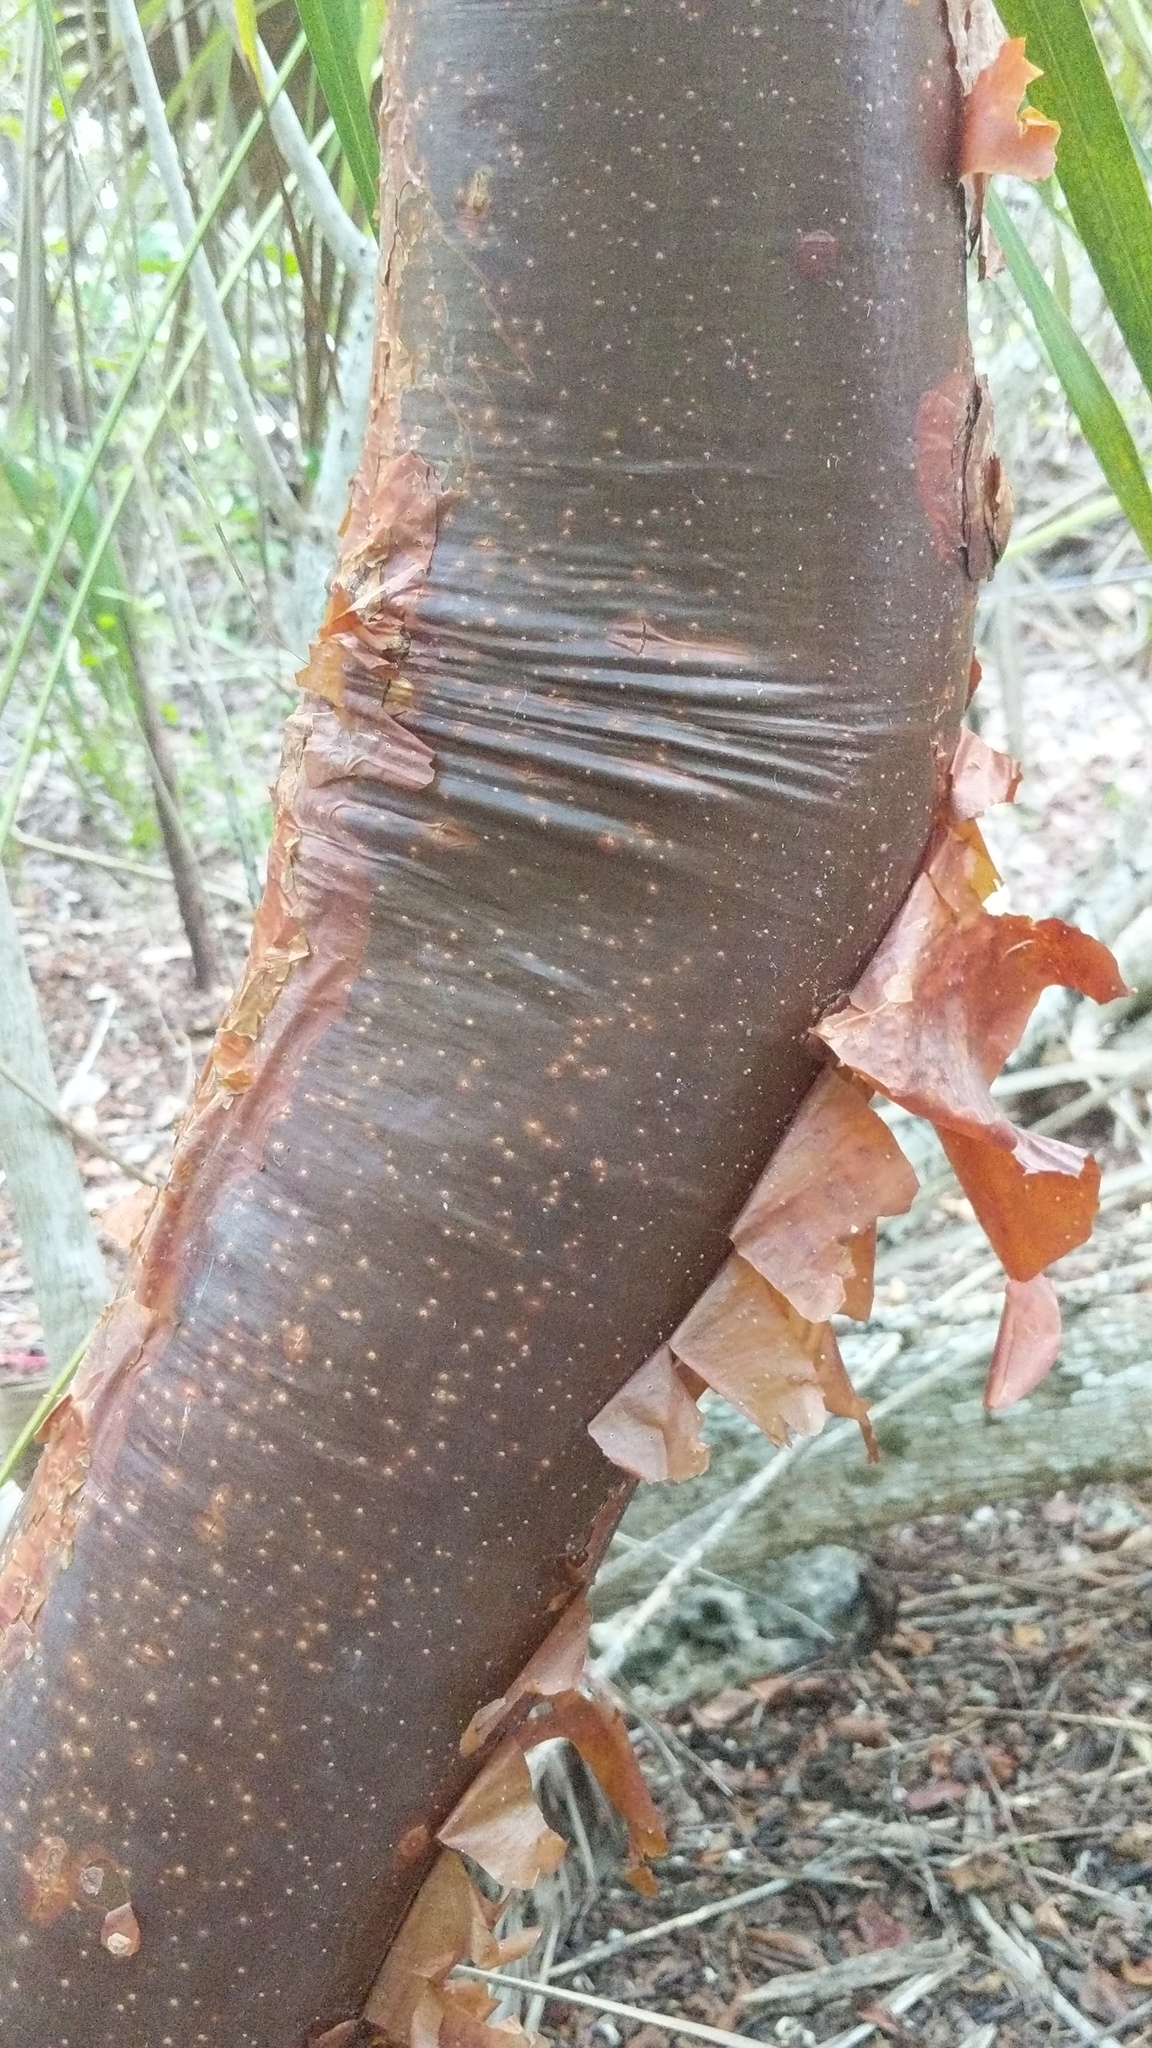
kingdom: Plantae
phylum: Tracheophyta
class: Magnoliopsida
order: Sapindales
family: Burseraceae
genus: Bursera
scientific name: Bursera simaruba
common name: Turpentine tree
